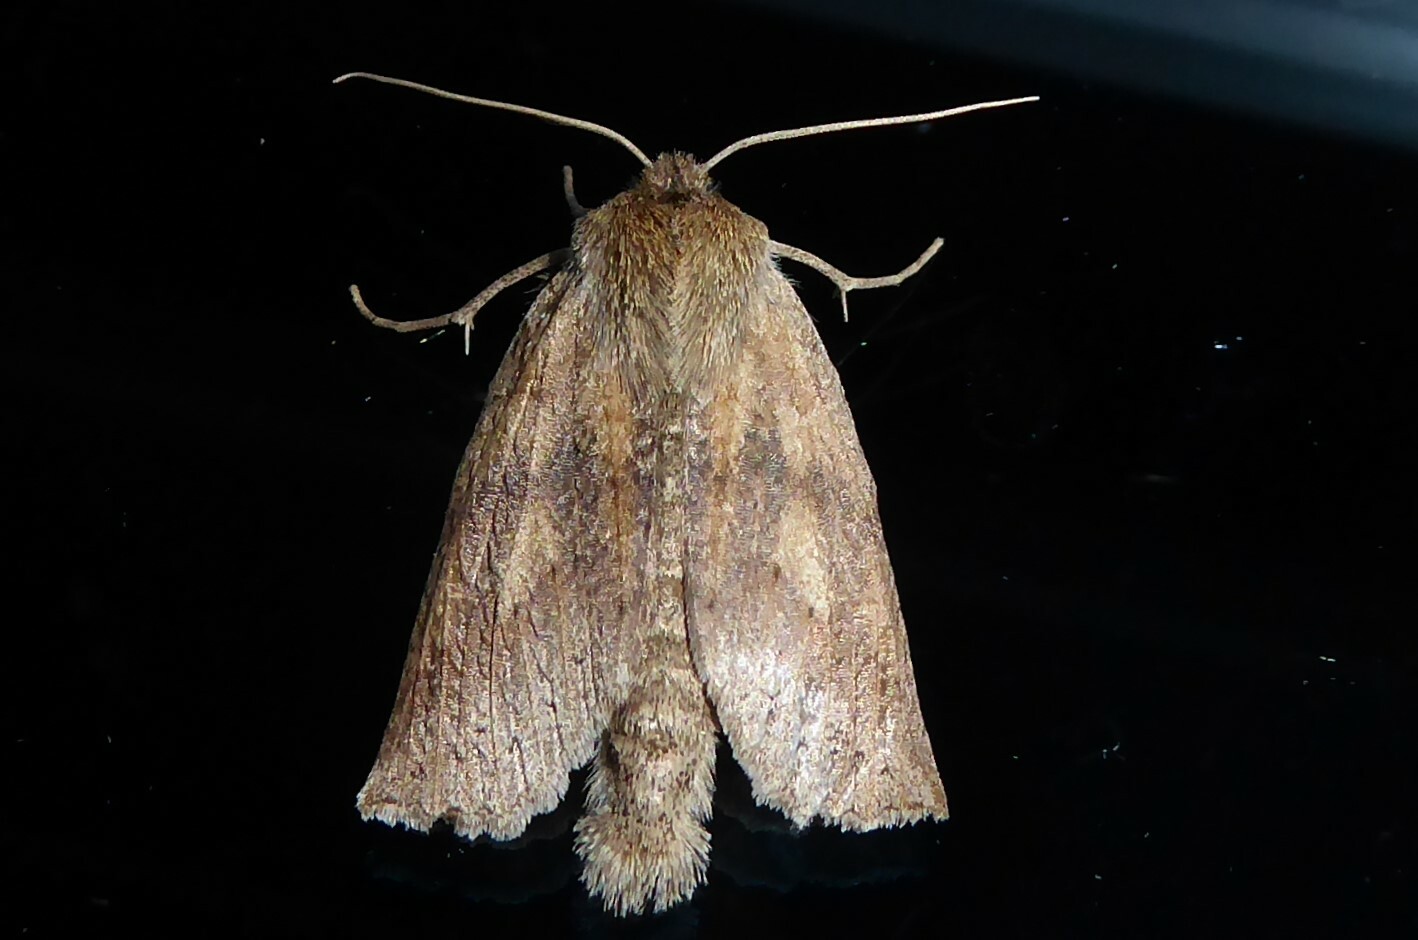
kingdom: Animalia
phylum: Arthropoda
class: Insecta
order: Lepidoptera
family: Geometridae
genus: Declana
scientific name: Declana leptomera
